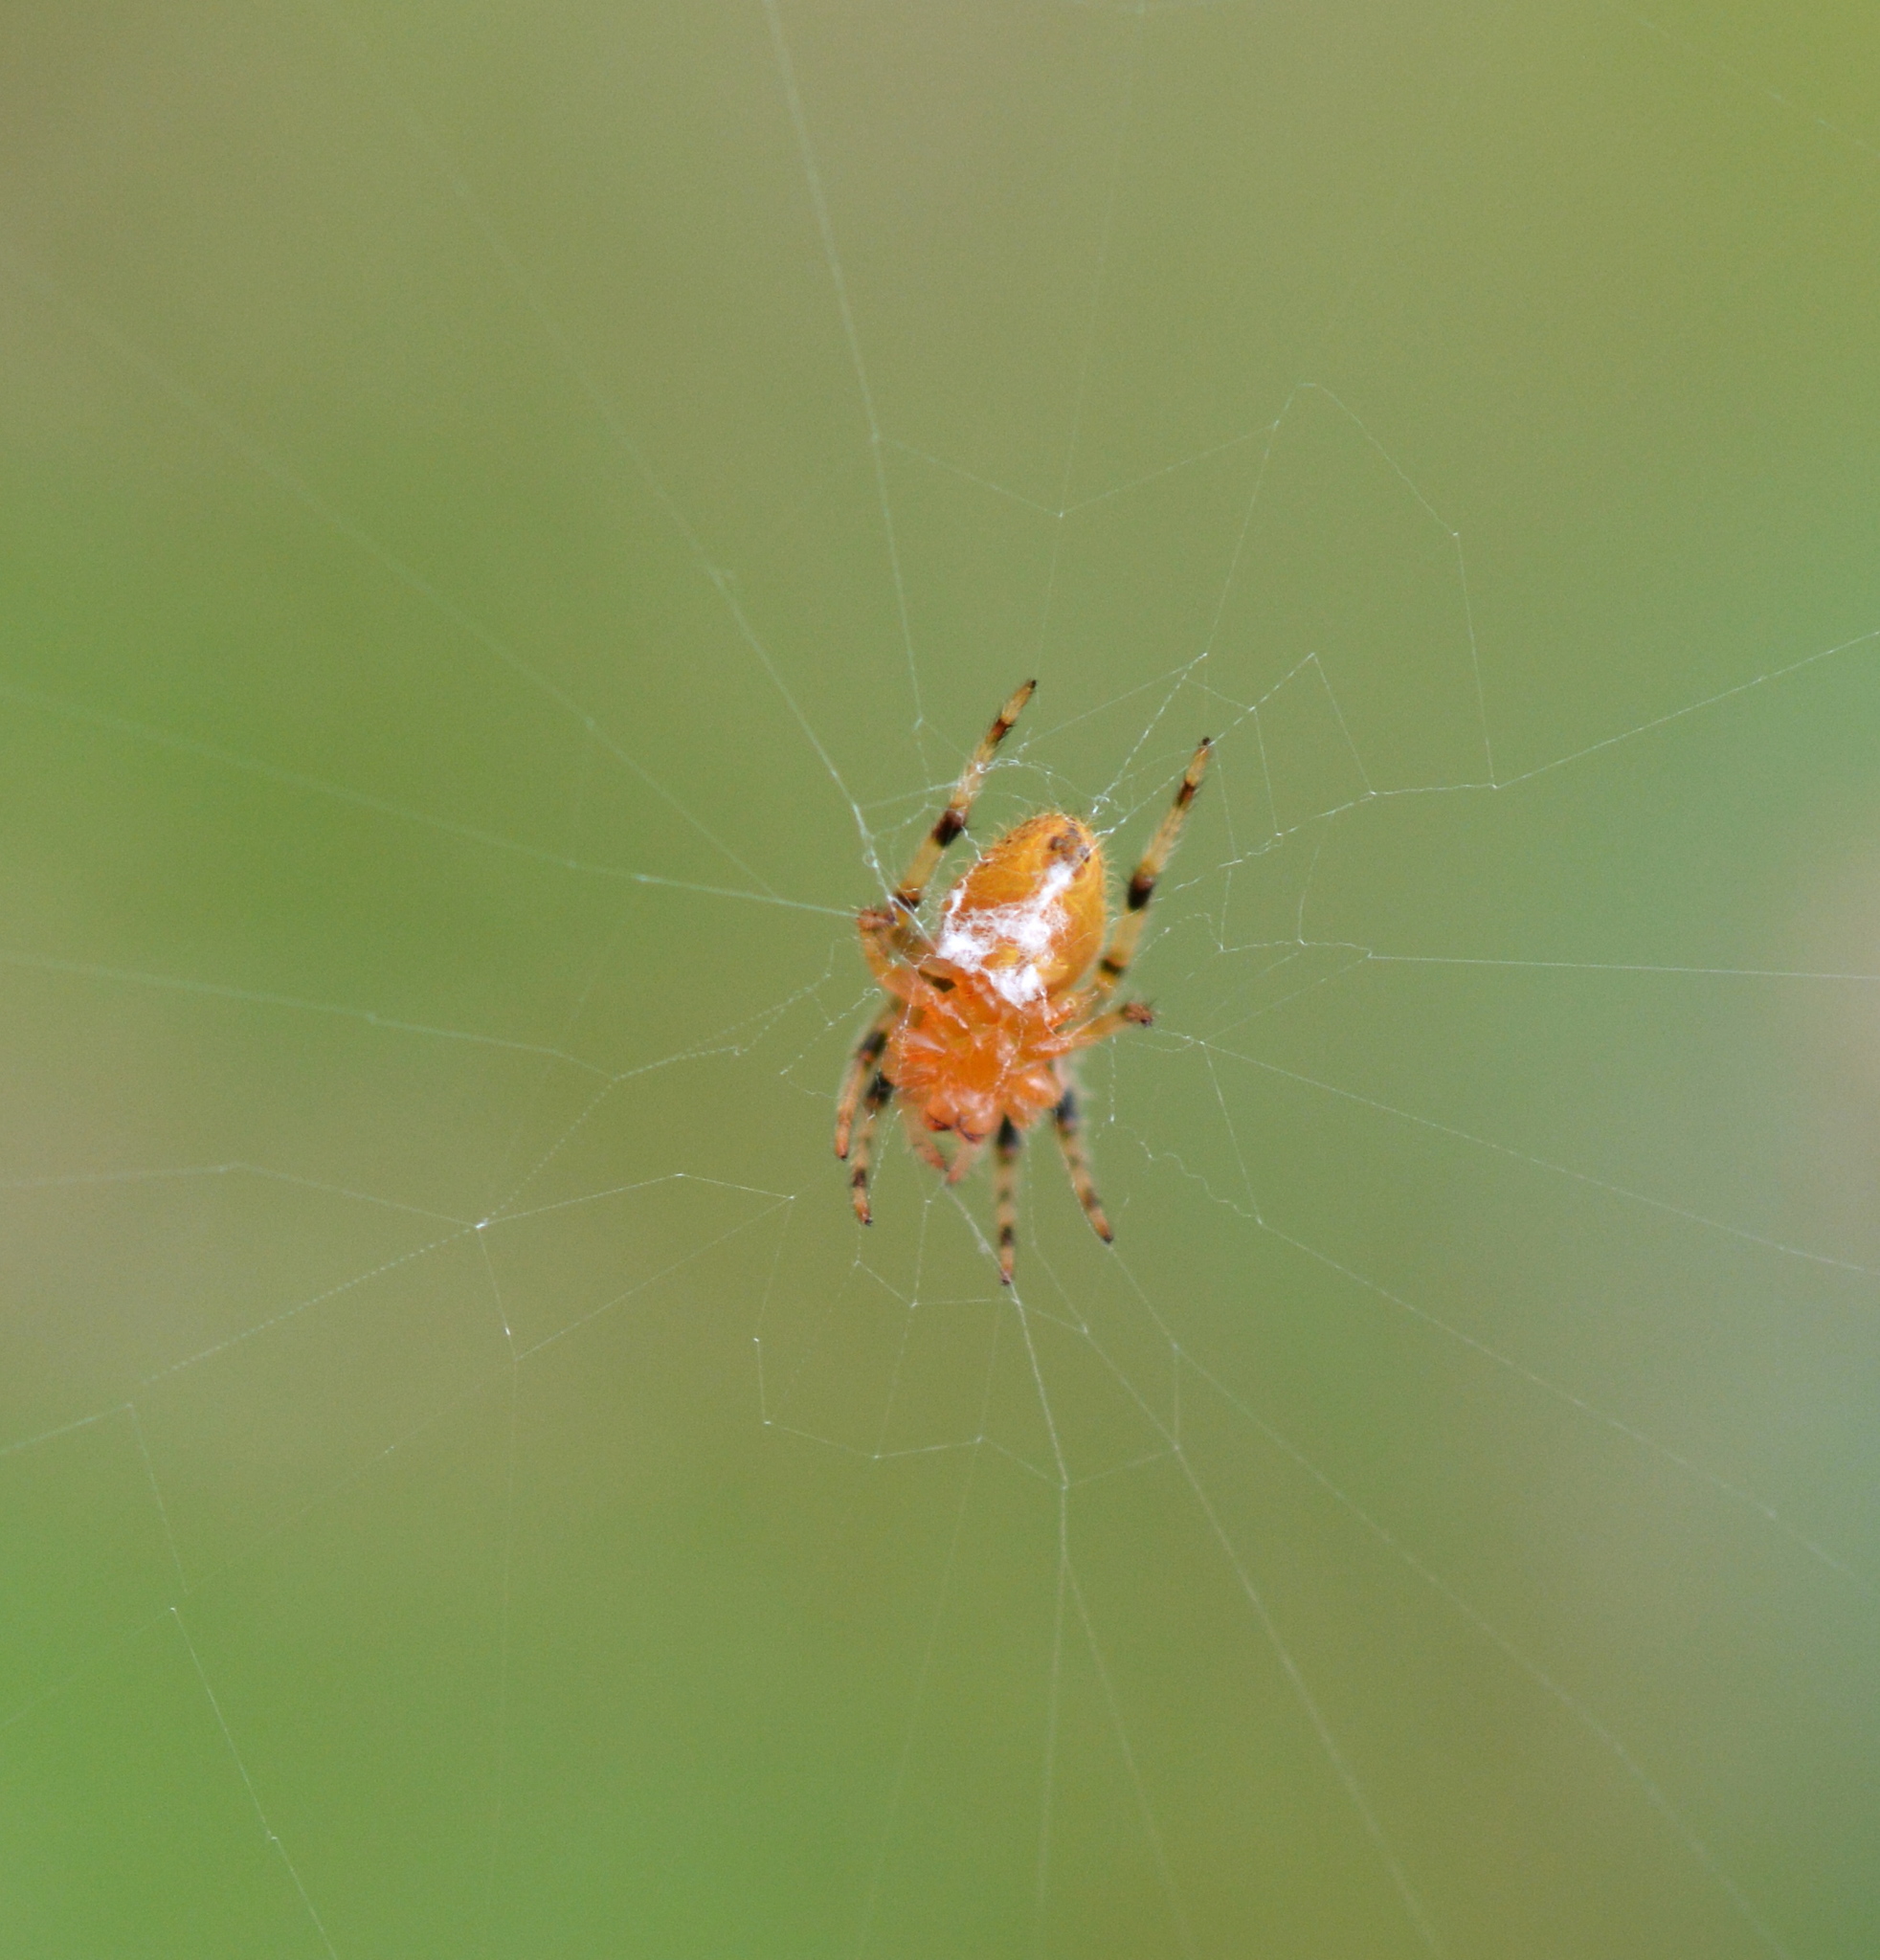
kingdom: Animalia
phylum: Arthropoda
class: Arachnida
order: Araneae
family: Araneidae
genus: Eriophora
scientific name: Eriophora ravilla
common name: Orb weavers
